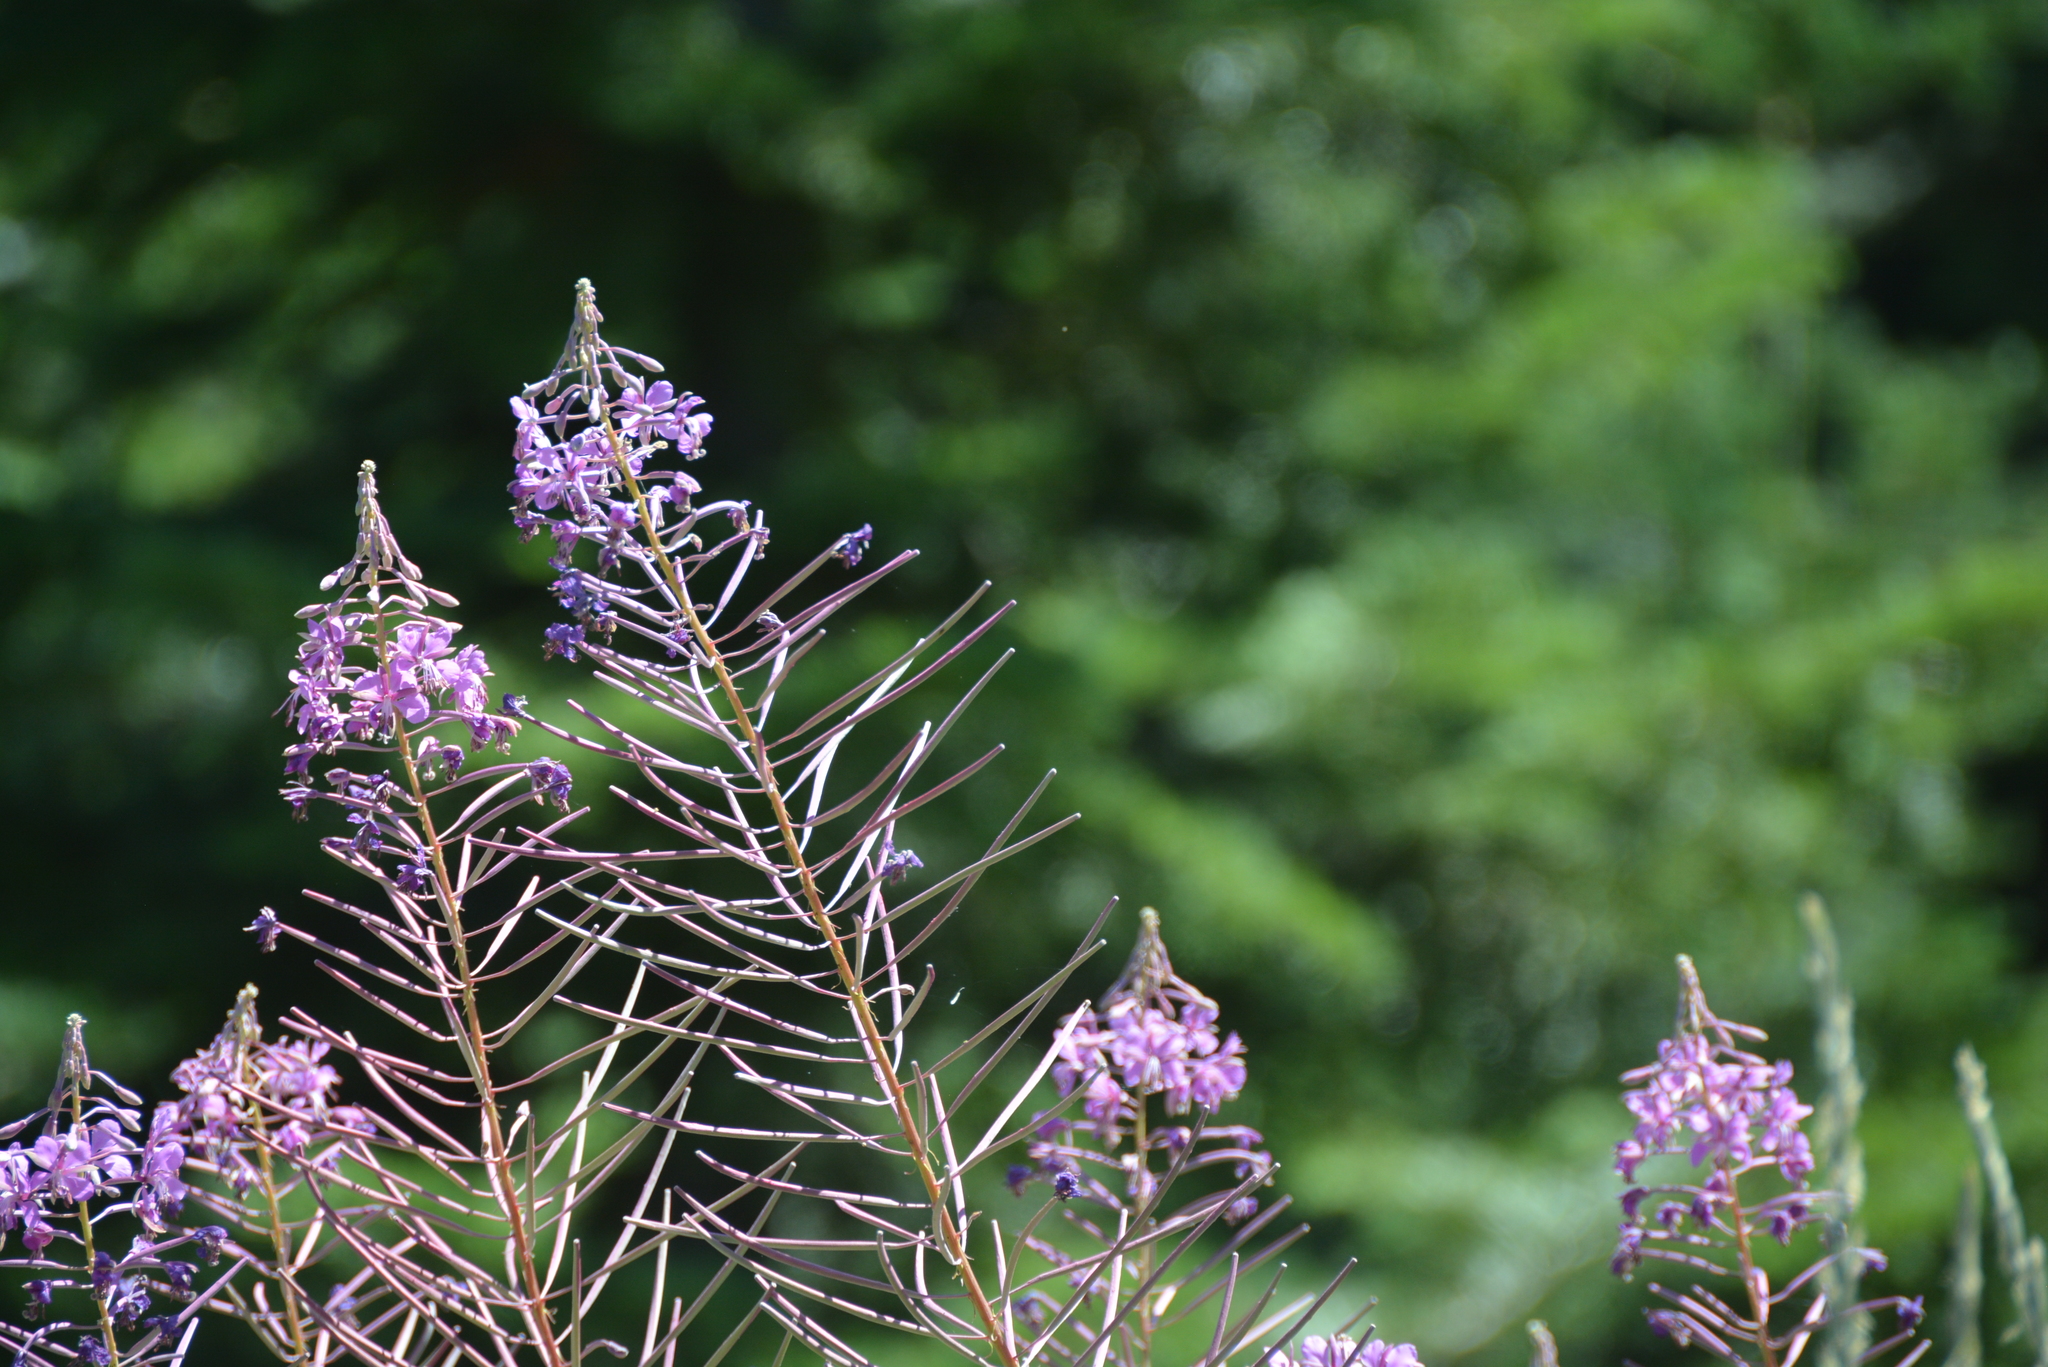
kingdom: Plantae
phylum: Tracheophyta
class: Magnoliopsida
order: Myrtales
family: Onagraceae
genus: Chamaenerion
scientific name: Chamaenerion angustifolium
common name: Fireweed
